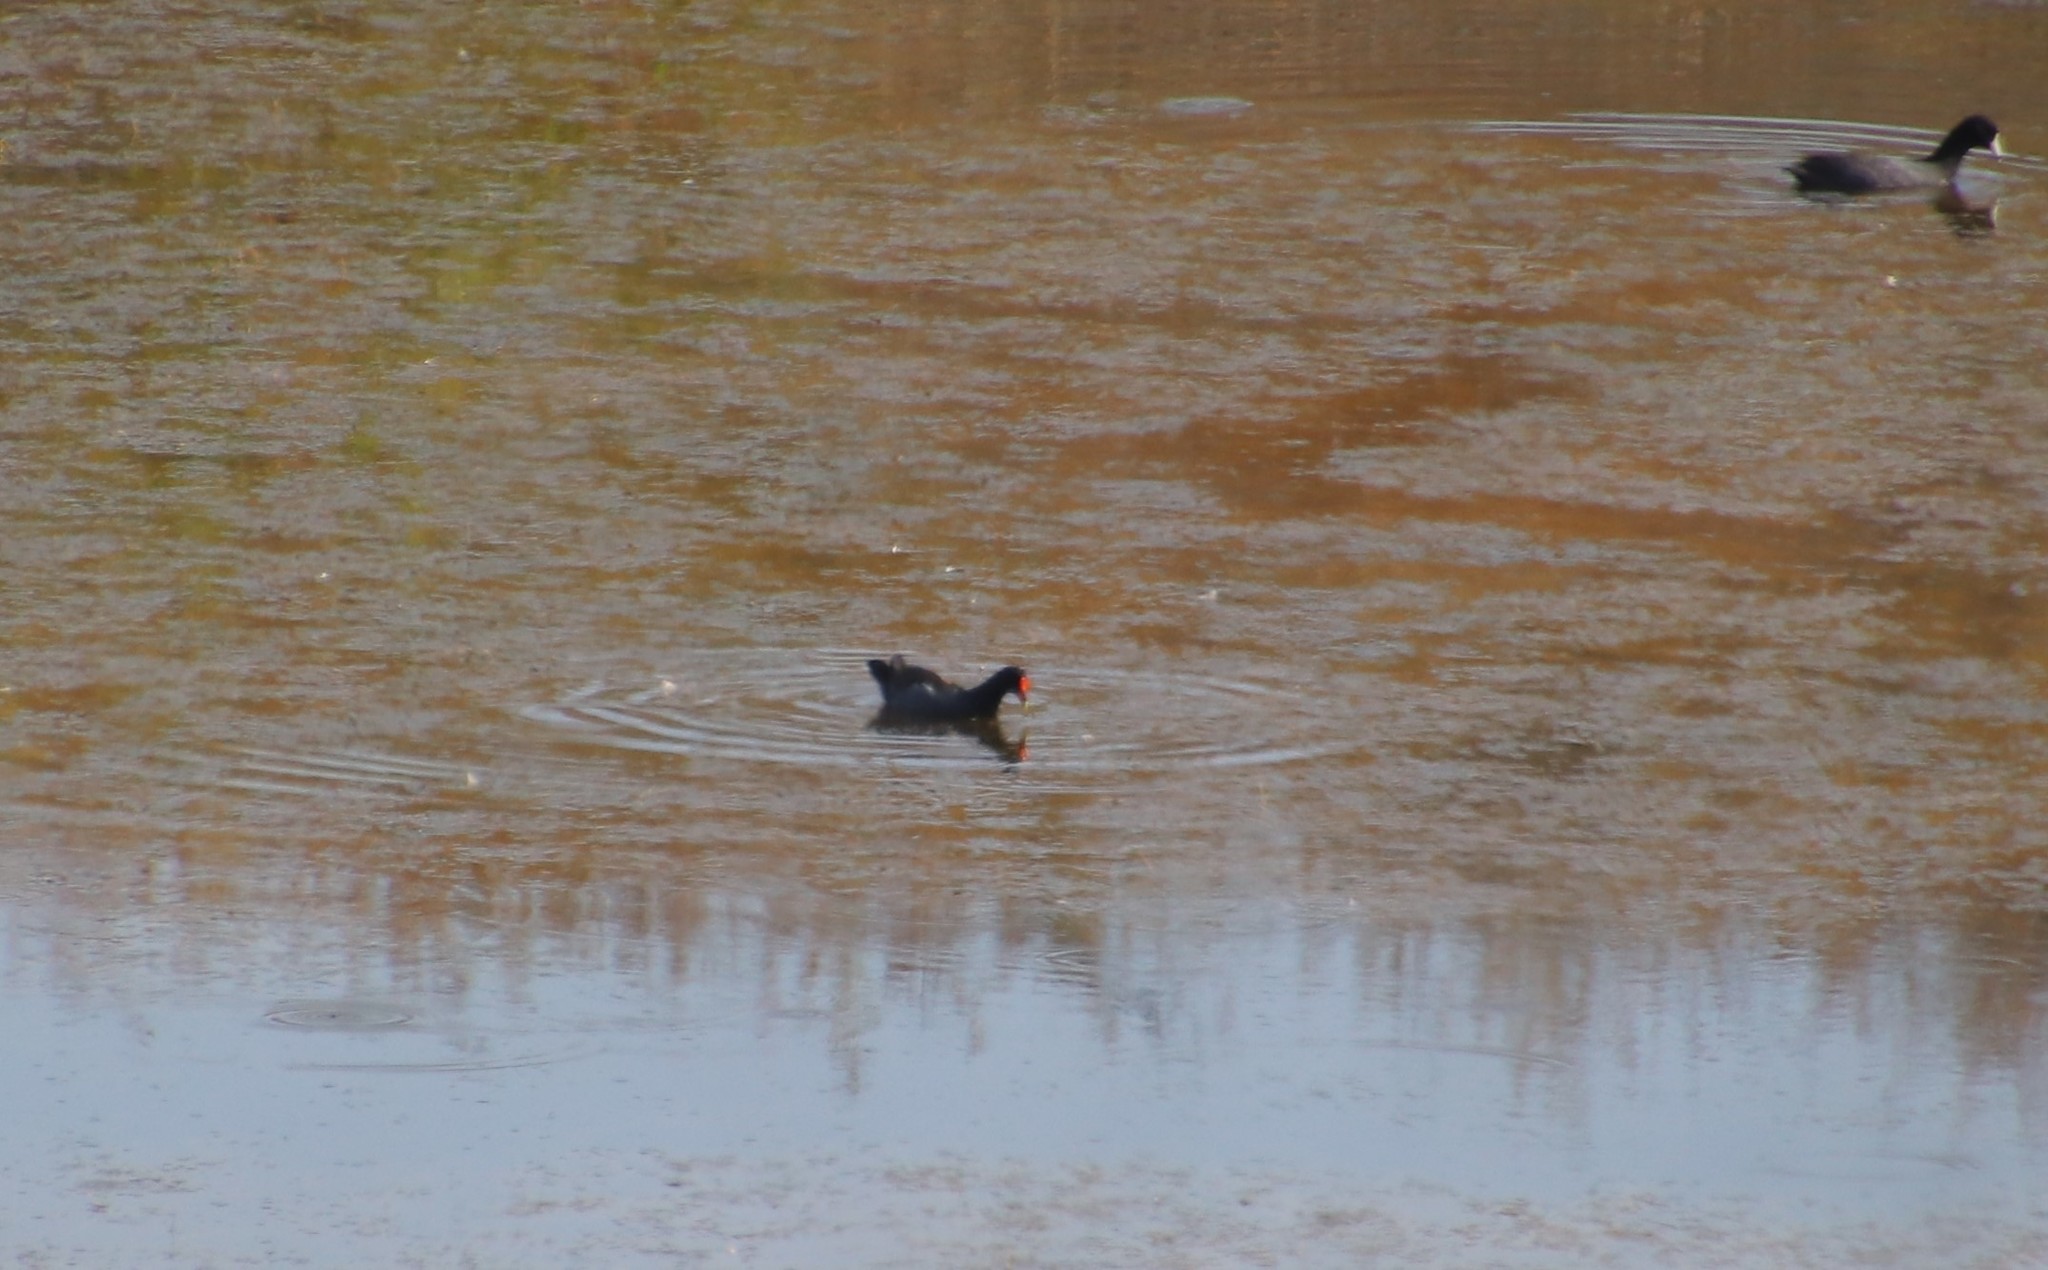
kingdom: Animalia
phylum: Chordata
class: Aves
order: Gruiformes
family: Rallidae
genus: Gallinula
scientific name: Gallinula chloropus
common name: Common moorhen
